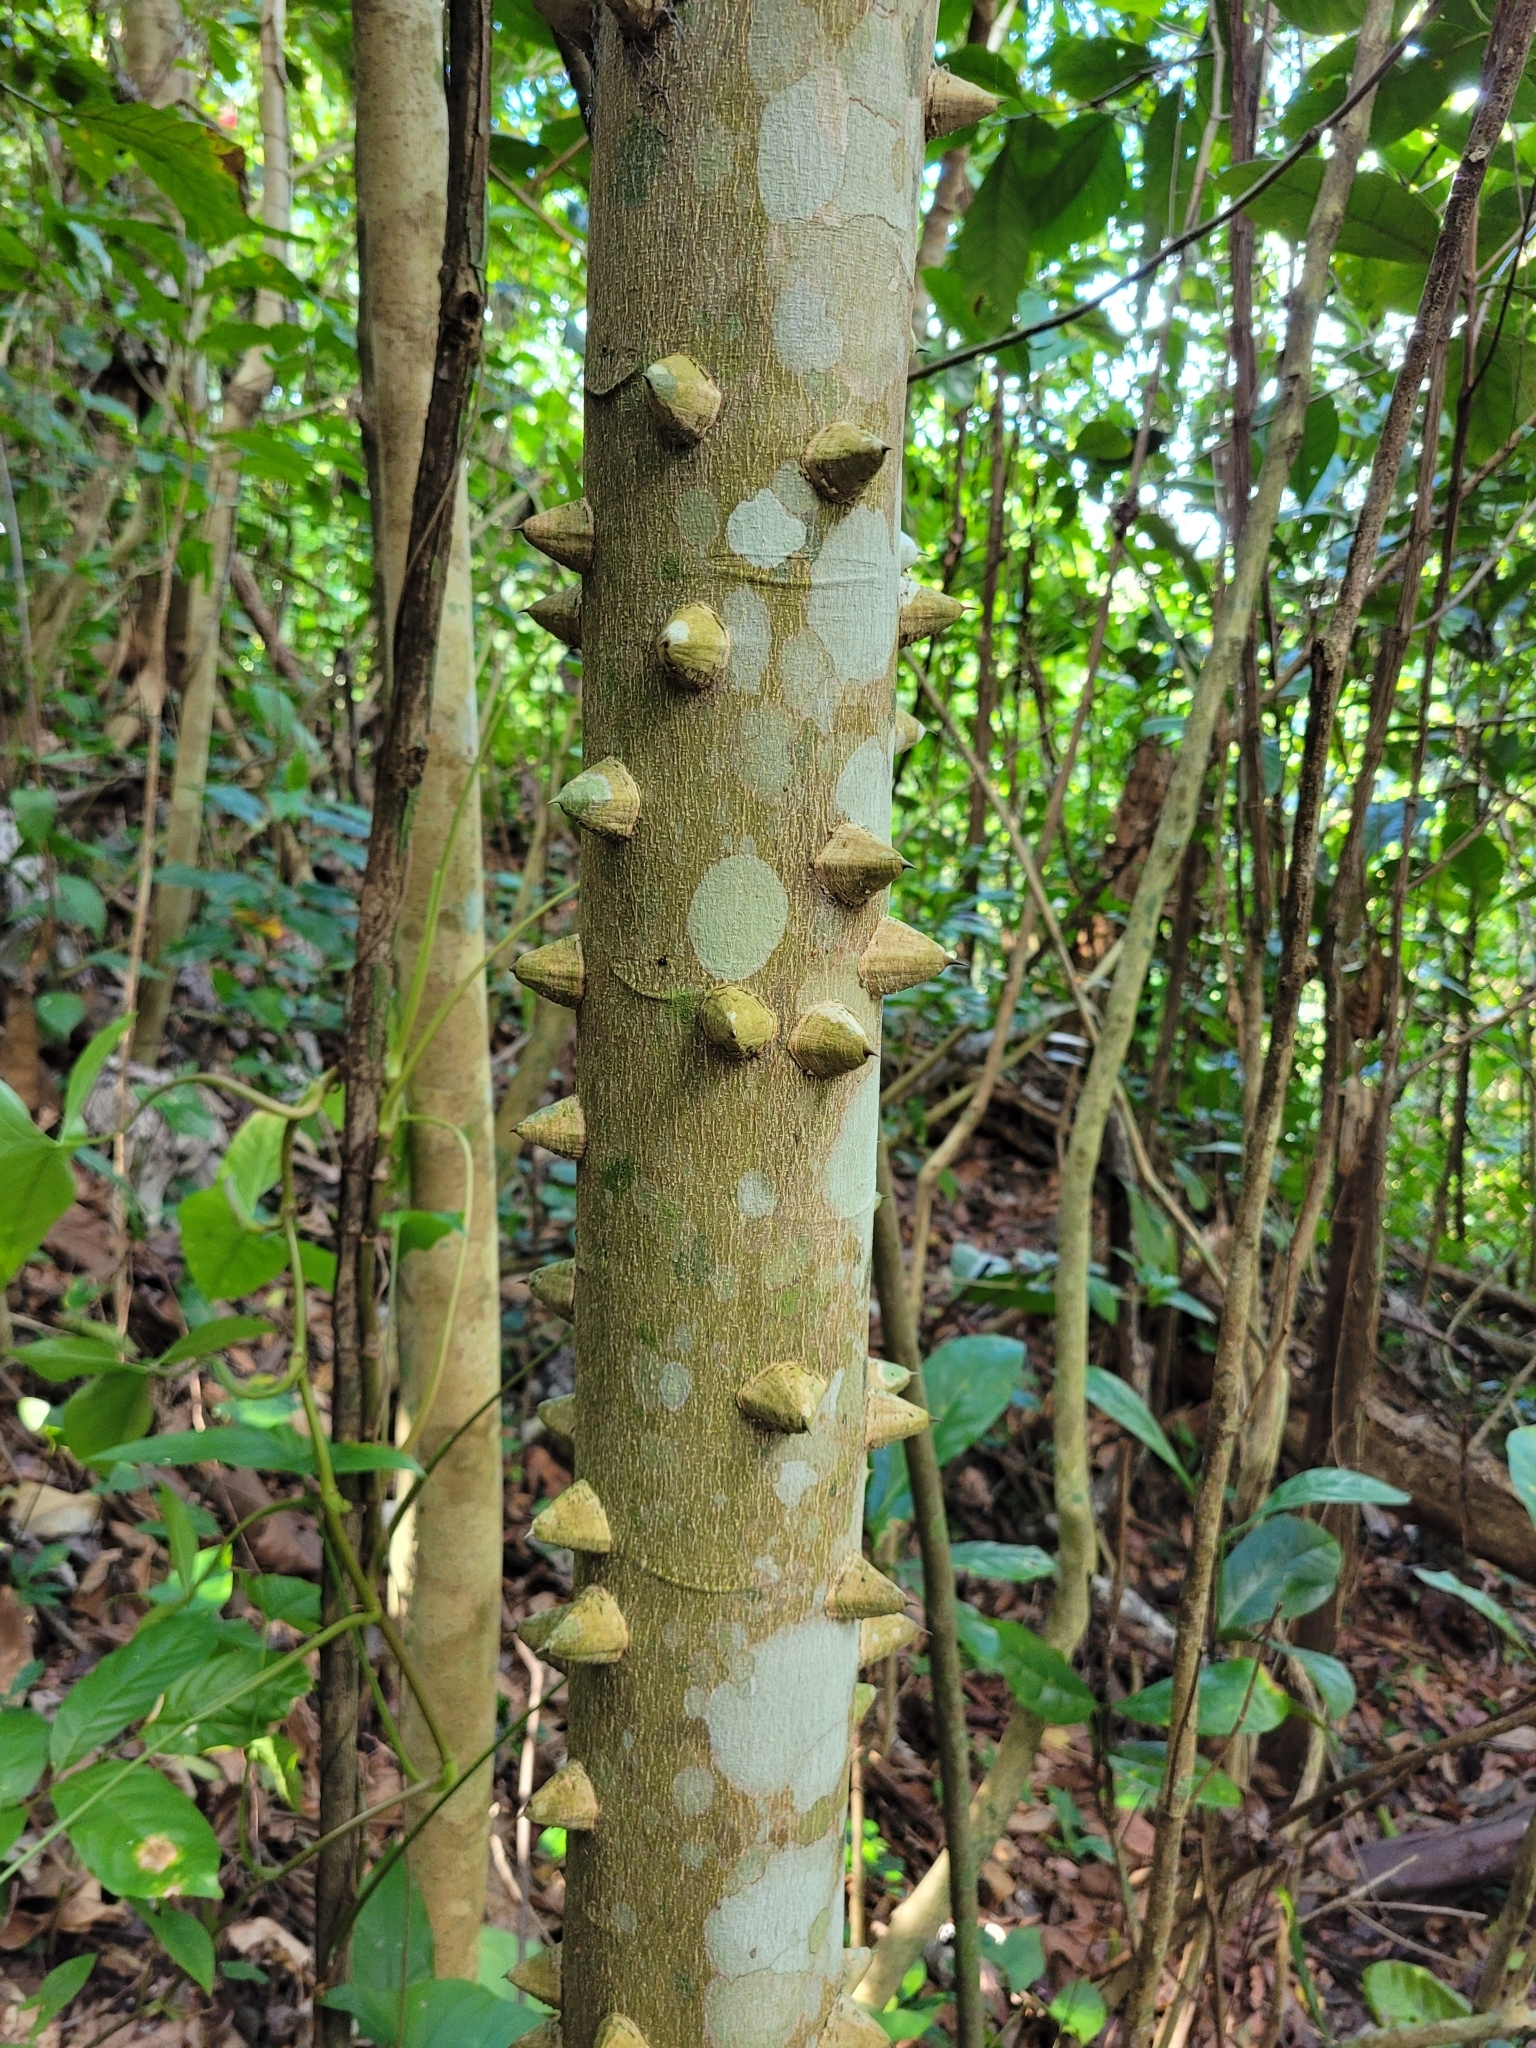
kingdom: Plantae
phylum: Tracheophyta
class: Magnoliopsida
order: Sapindales
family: Rutaceae
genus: Zanthoxylum
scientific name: Zanthoxylum martinicense
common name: Yellow prickle
